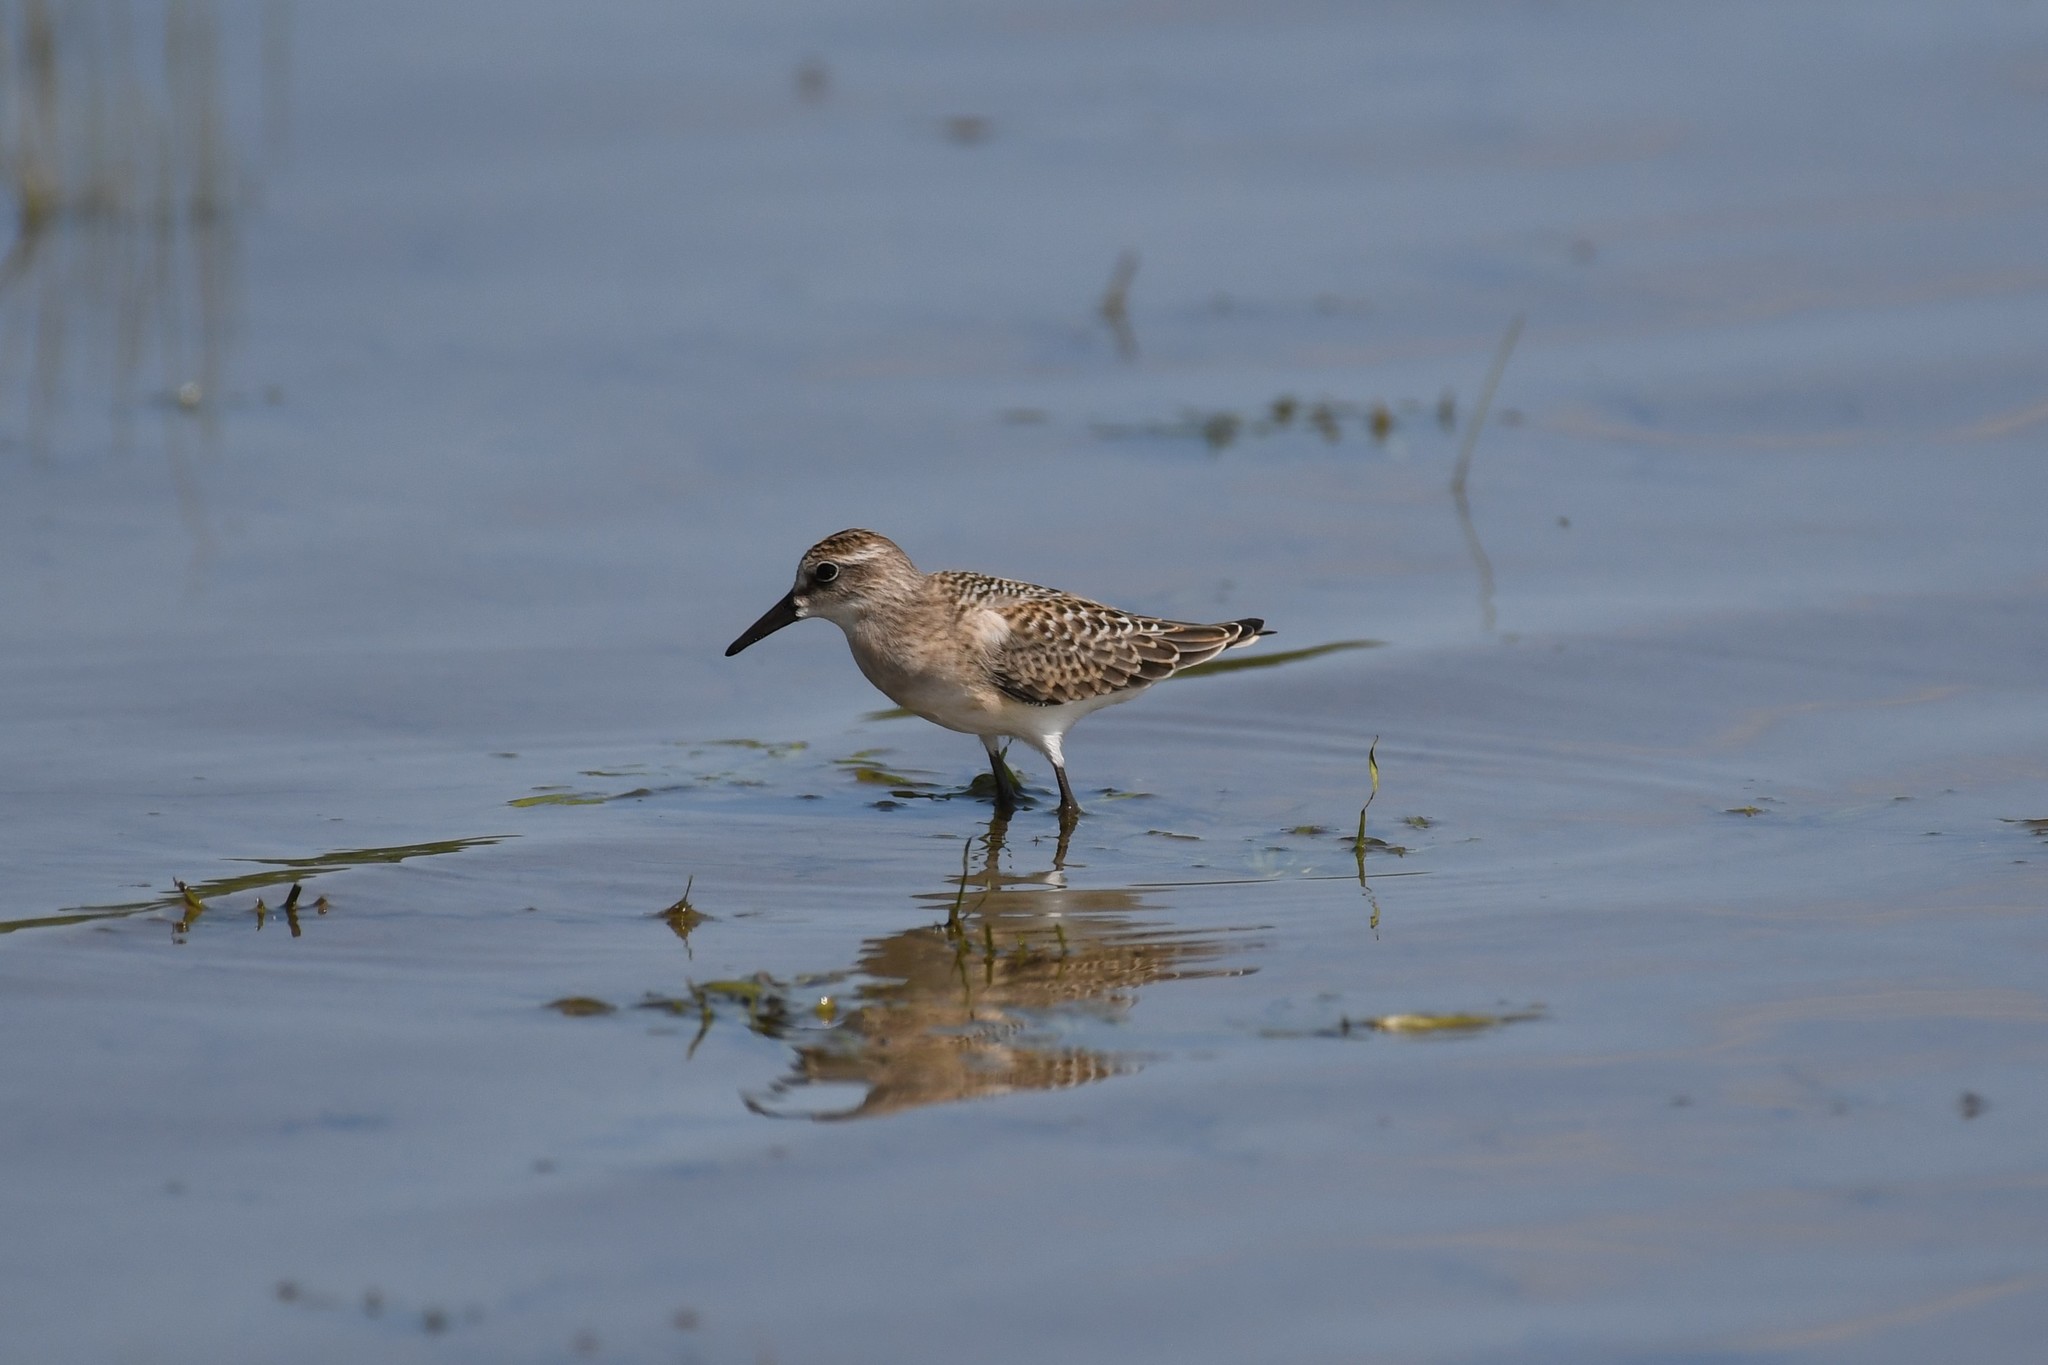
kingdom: Animalia
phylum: Chordata
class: Aves
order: Charadriiformes
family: Scolopacidae
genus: Calidris
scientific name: Calidris pusilla
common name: Semipalmated sandpiper
